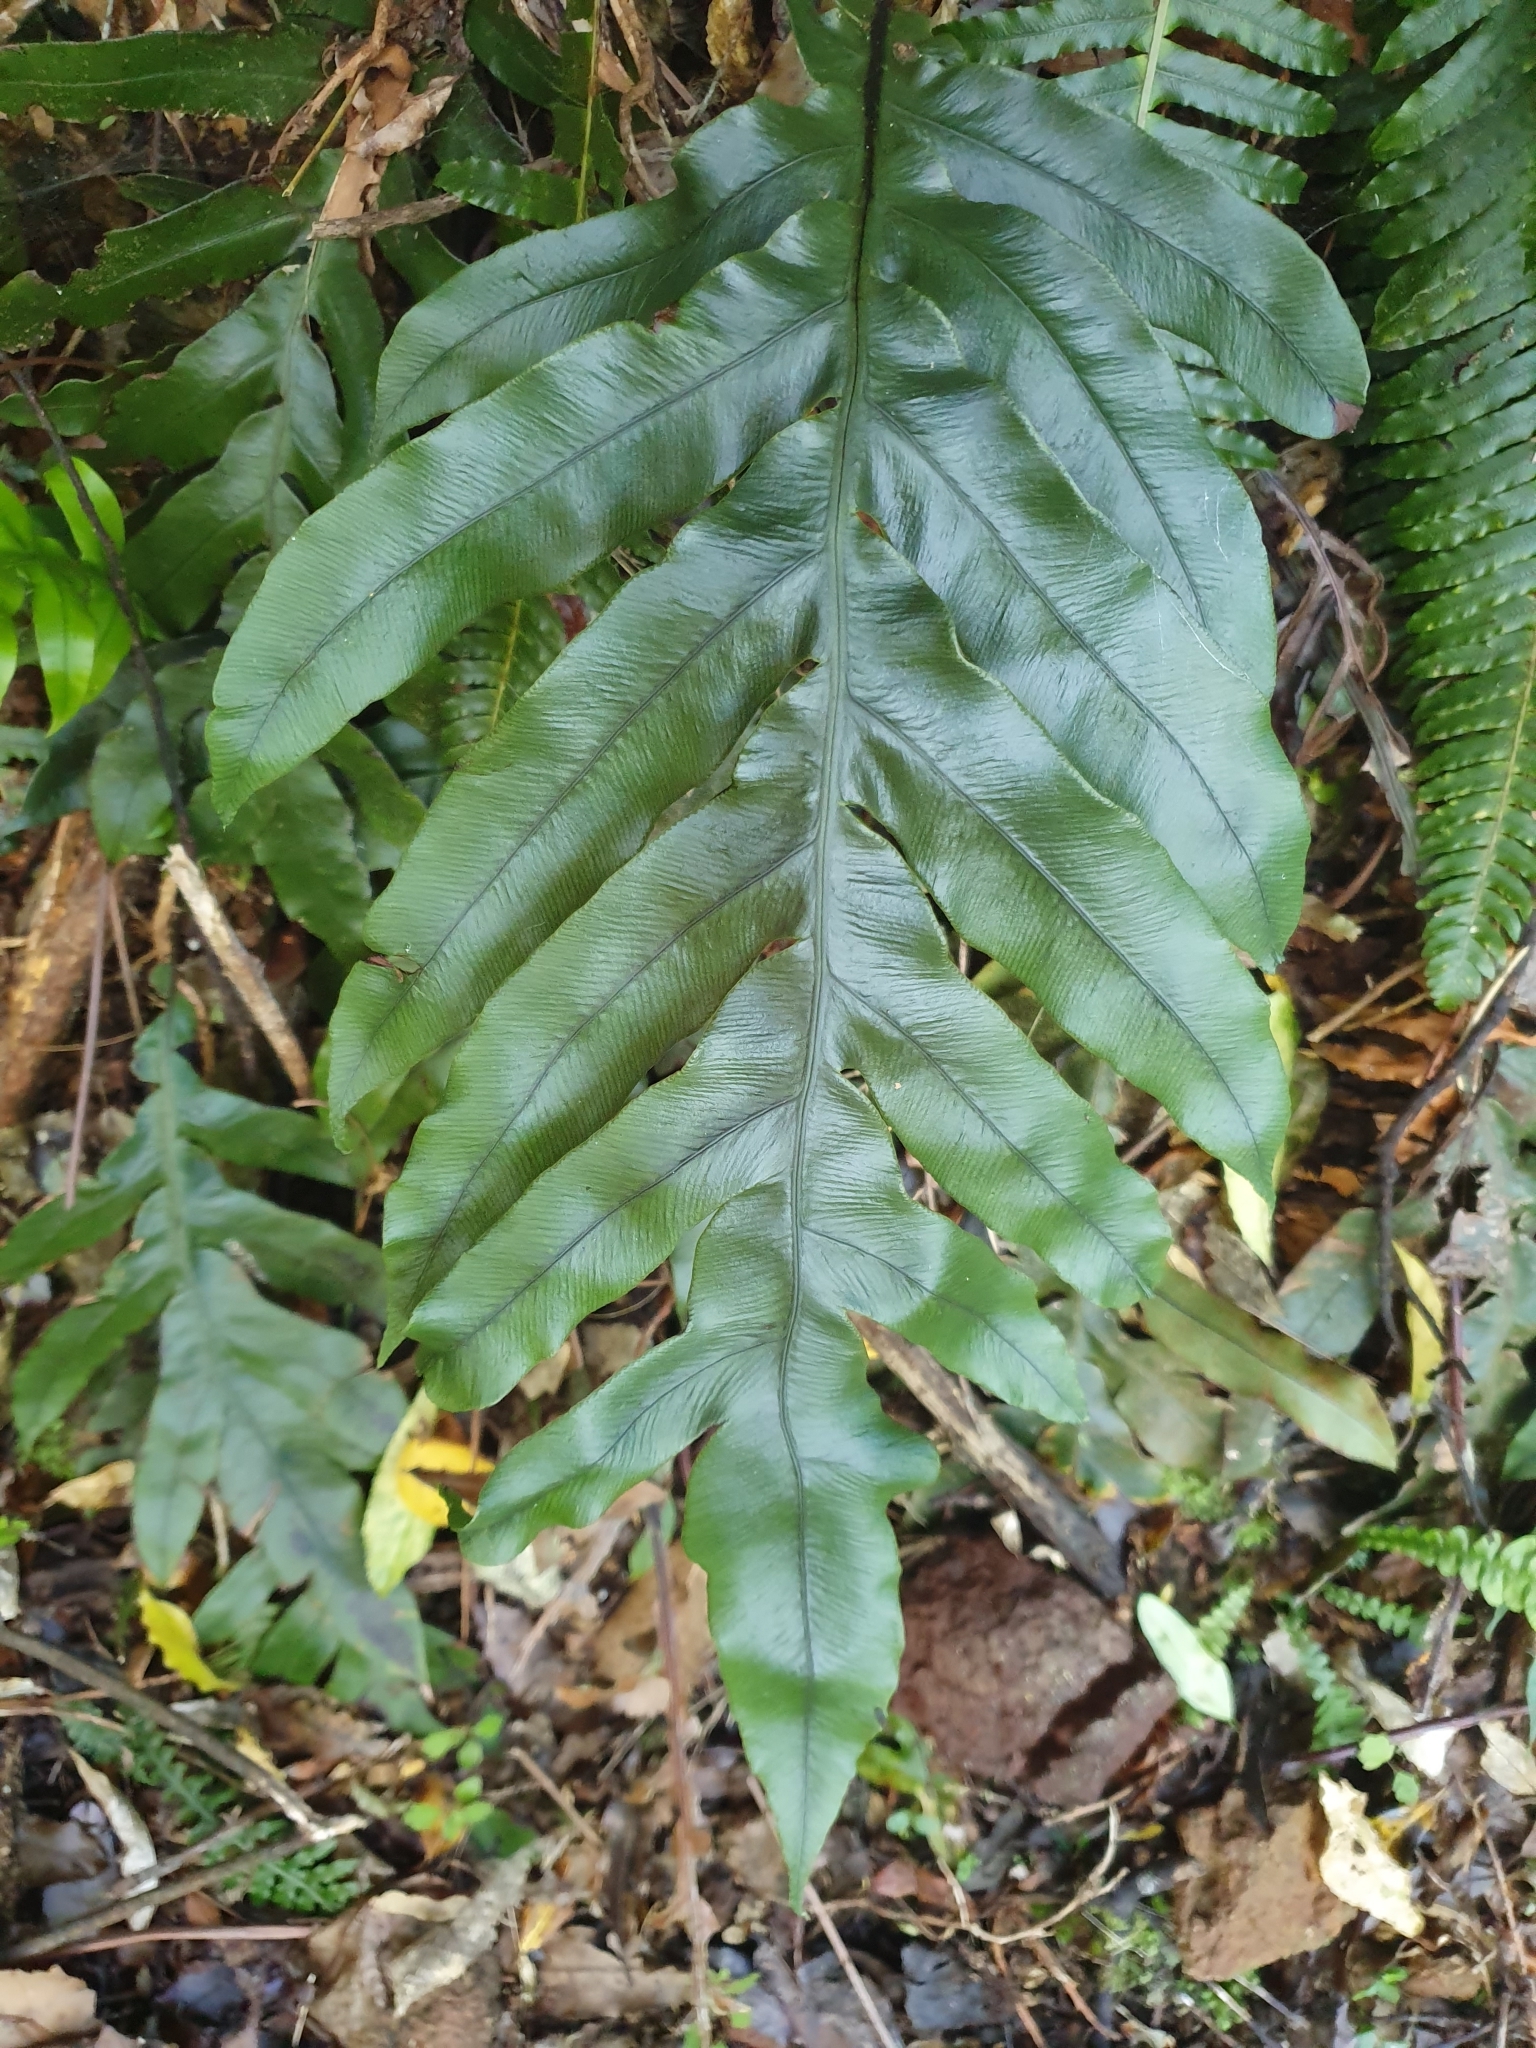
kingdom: Plantae
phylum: Tracheophyta
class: Polypodiopsida
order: Polypodiales
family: Blechnaceae
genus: Austroblechnum
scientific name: Austroblechnum colensoi
